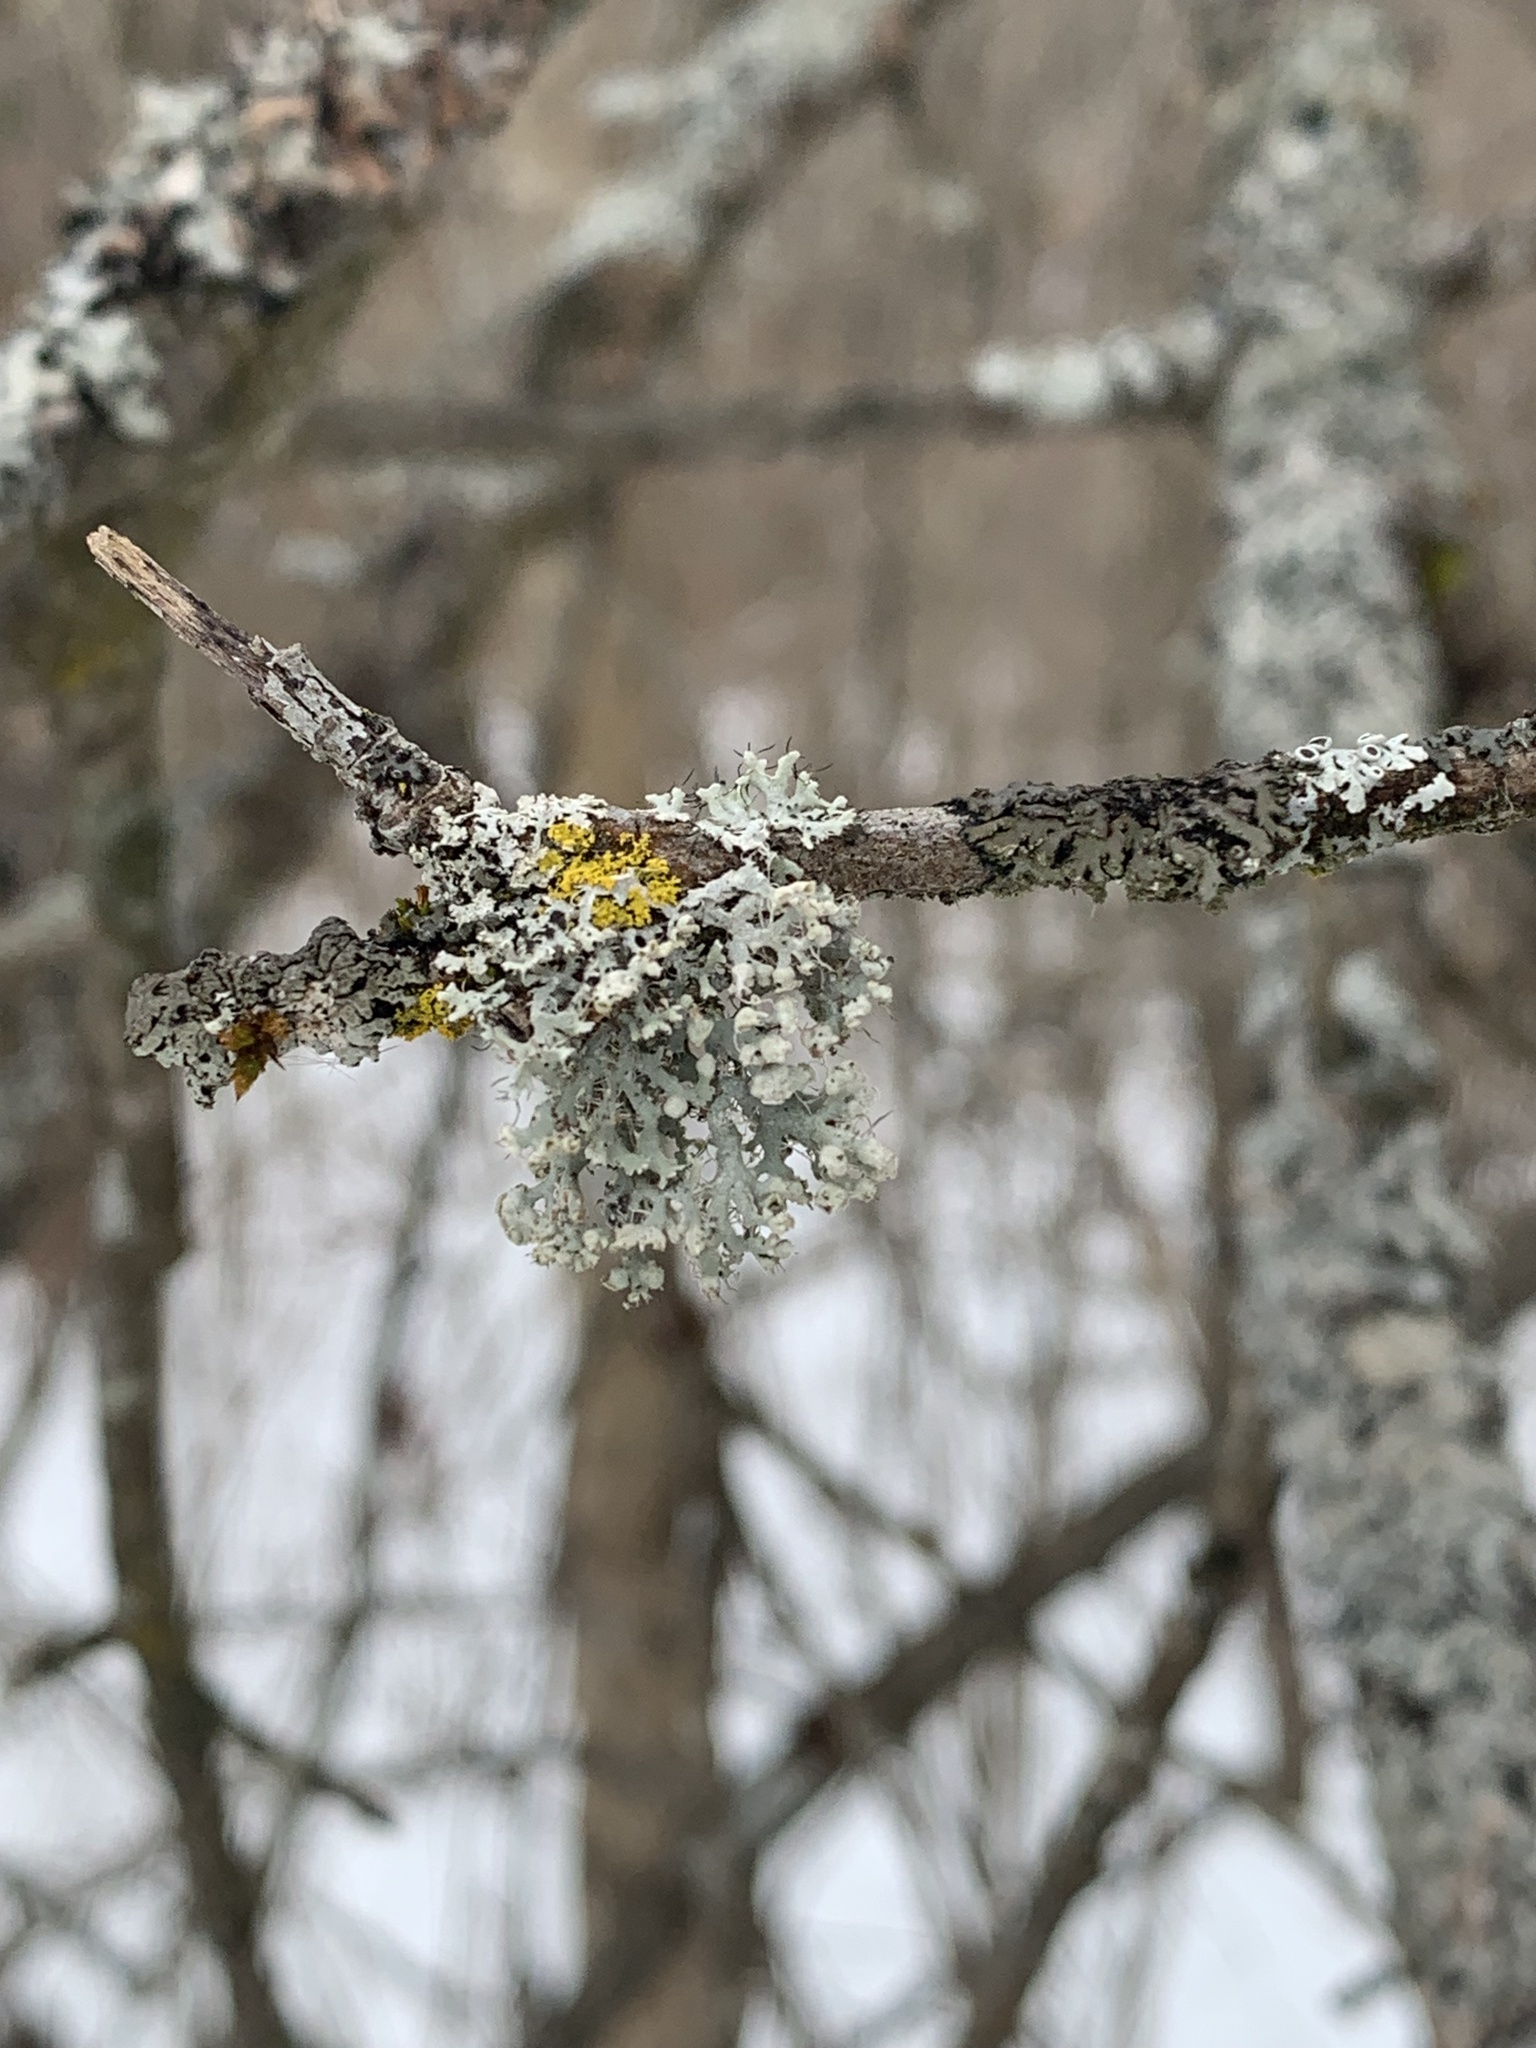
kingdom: Fungi
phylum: Ascomycota
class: Lecanoromycetes
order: Caliciales
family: Physciaceae
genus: Physcia
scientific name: Physcia adscendens
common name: Hooded rosette lichen
